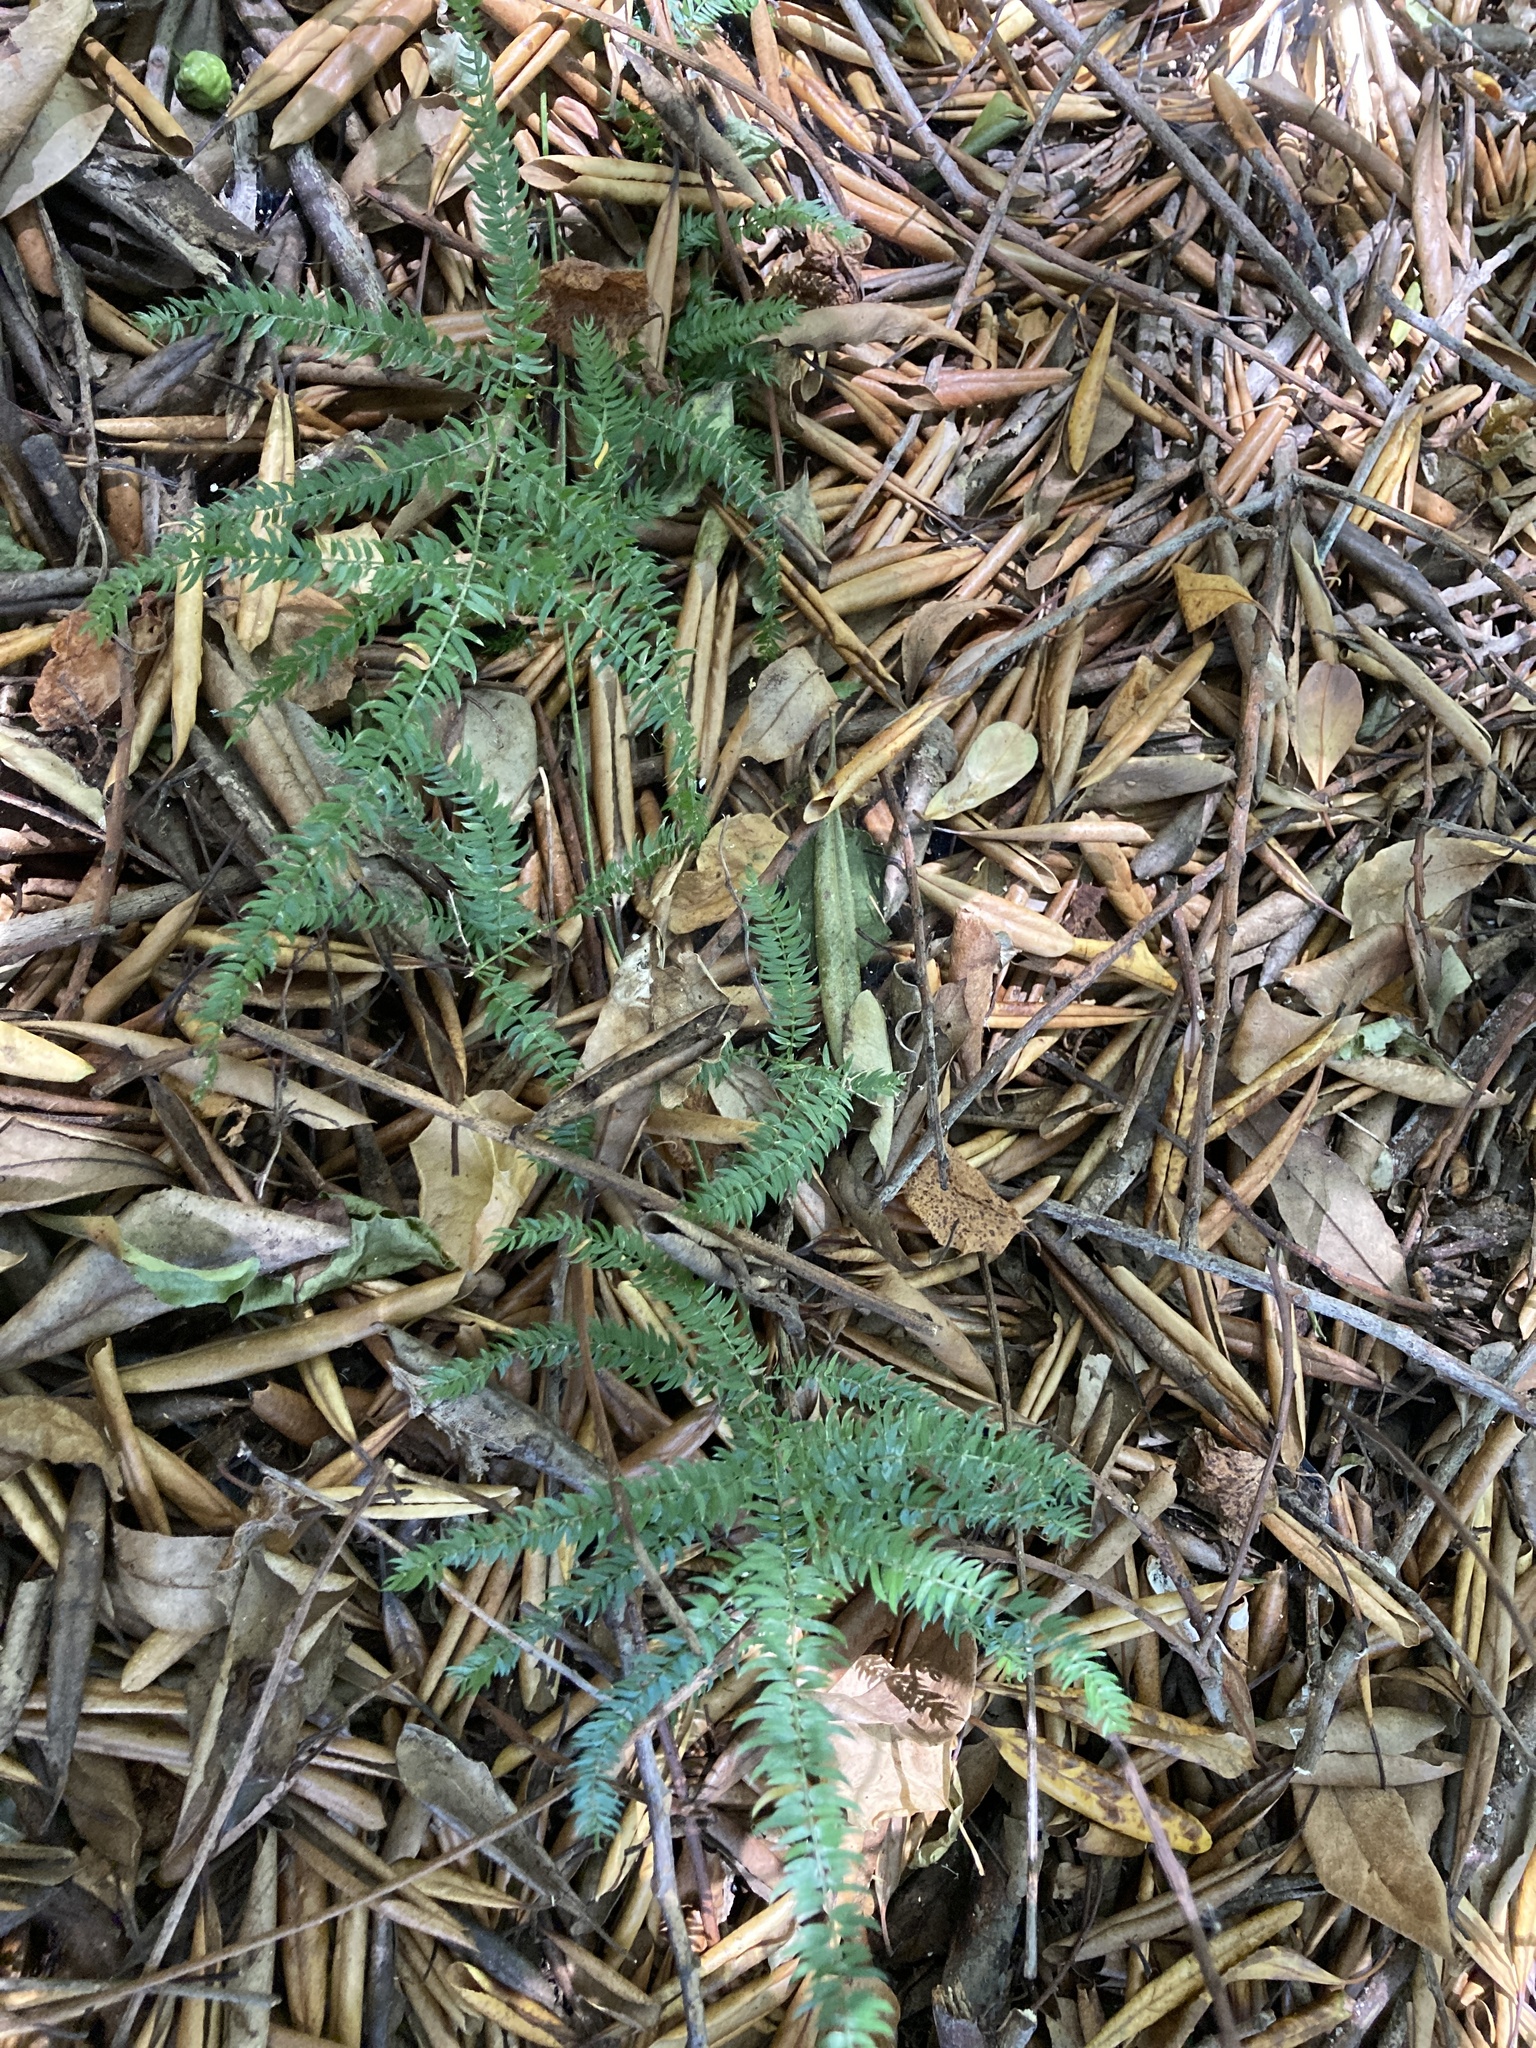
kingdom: Plantae
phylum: Tracheophyta
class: Liliopsida
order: Asparagales
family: Asparagaceae
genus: Asparagus
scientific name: Asparagus scandens
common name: Asparagus-fern
